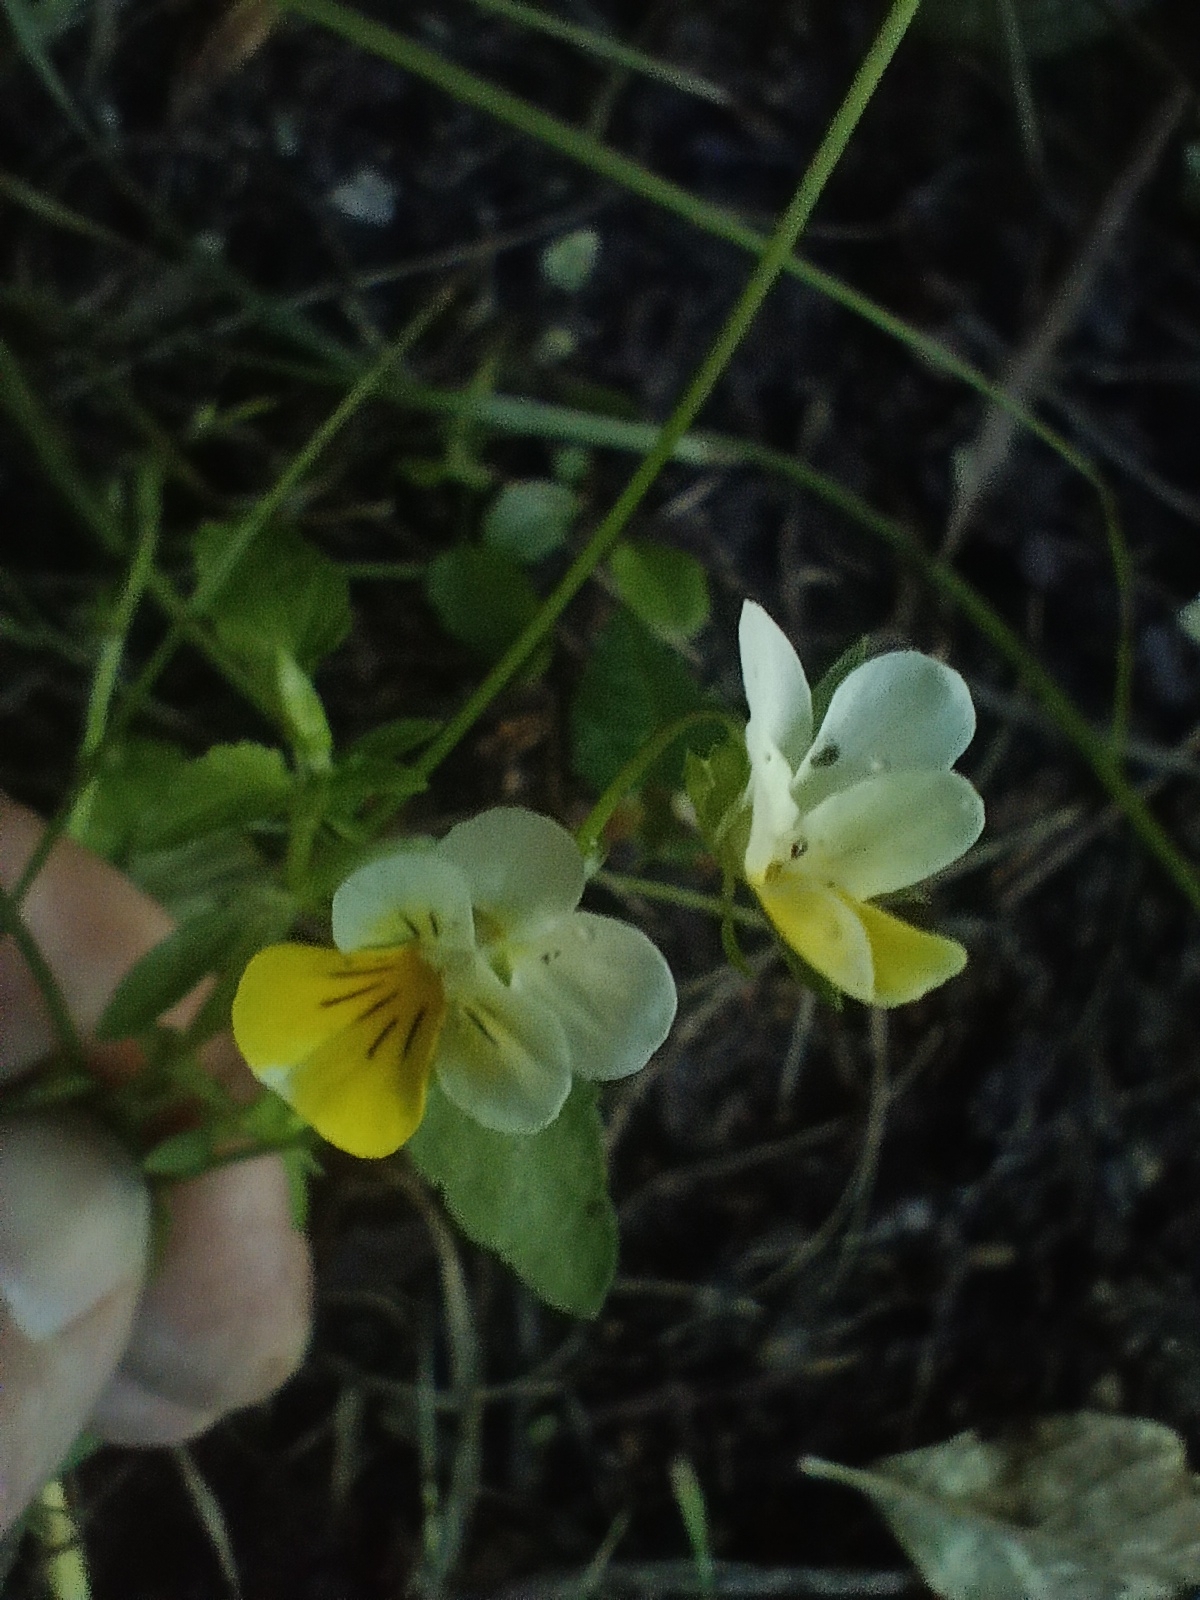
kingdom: Plantae
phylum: Tracheophyta
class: Magnoliopsida
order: Malpighiales
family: Violaceae
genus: Viola
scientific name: Viola arvensis
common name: Field pansy
